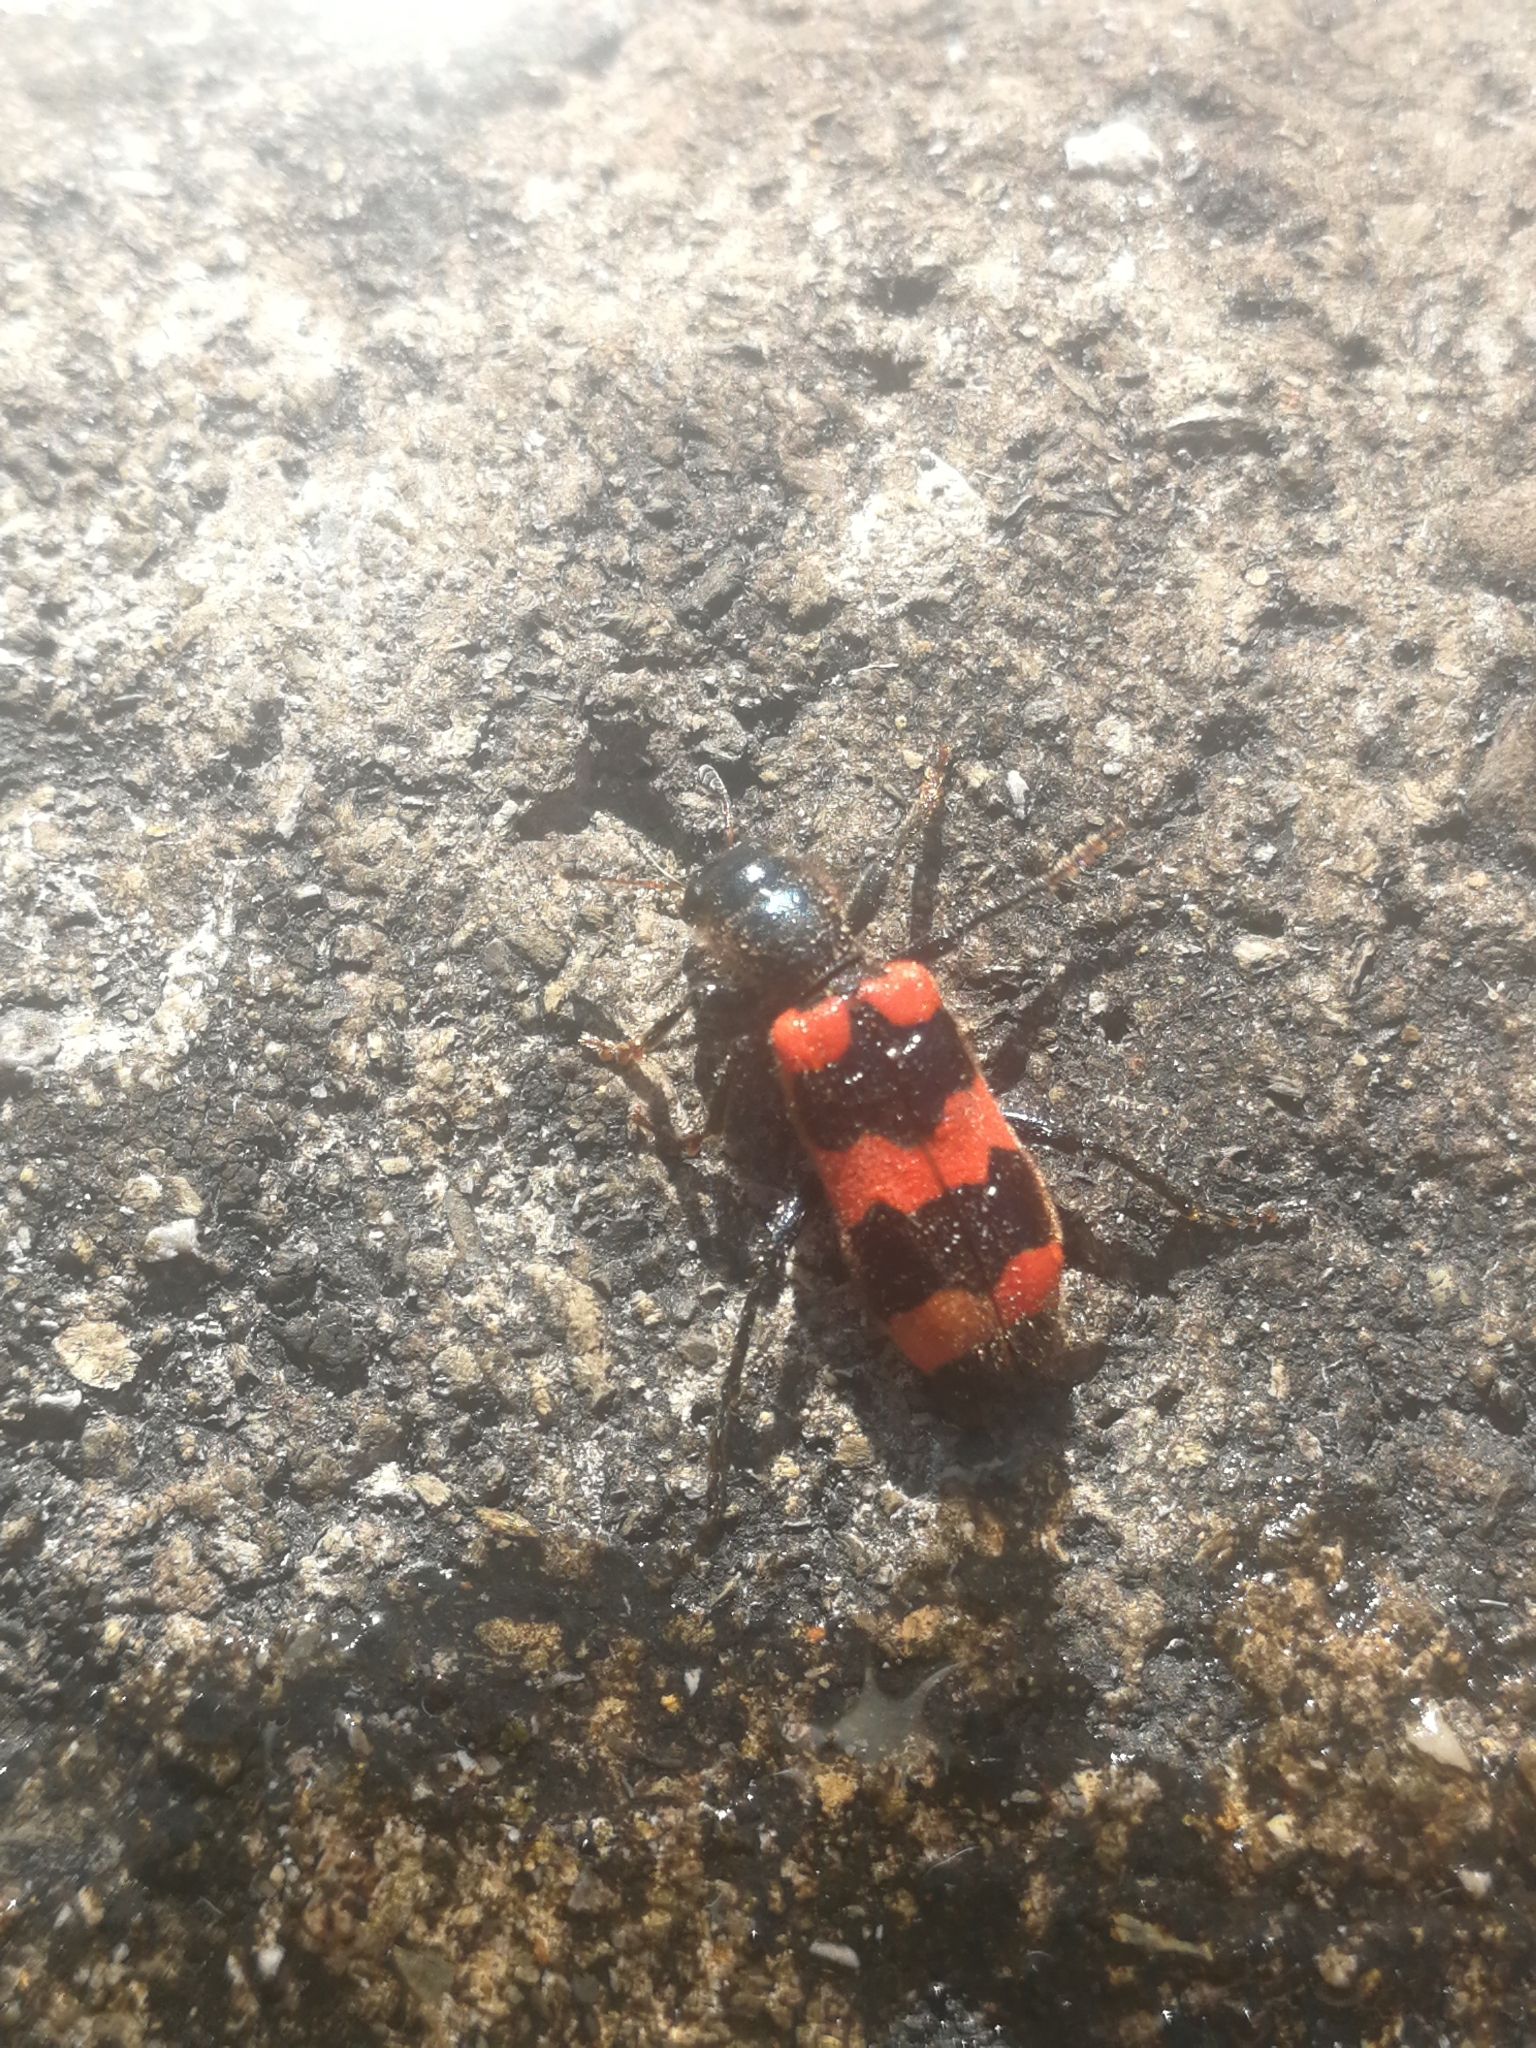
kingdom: Animalia
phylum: Arthropoda
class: Insecta
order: Coleoptera
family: Cleridae
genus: Trichodes
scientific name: Trichodes apiarius
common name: Bee-eating beetle
